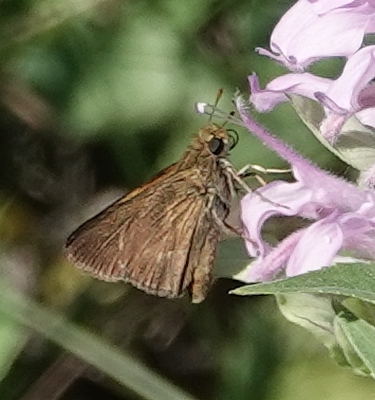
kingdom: Animalia
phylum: Arthropoda
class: Insecta
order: Lepidoptera
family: Hesperiidae
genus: Euphyes
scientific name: Euphyes vestris
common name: Dun skipper
